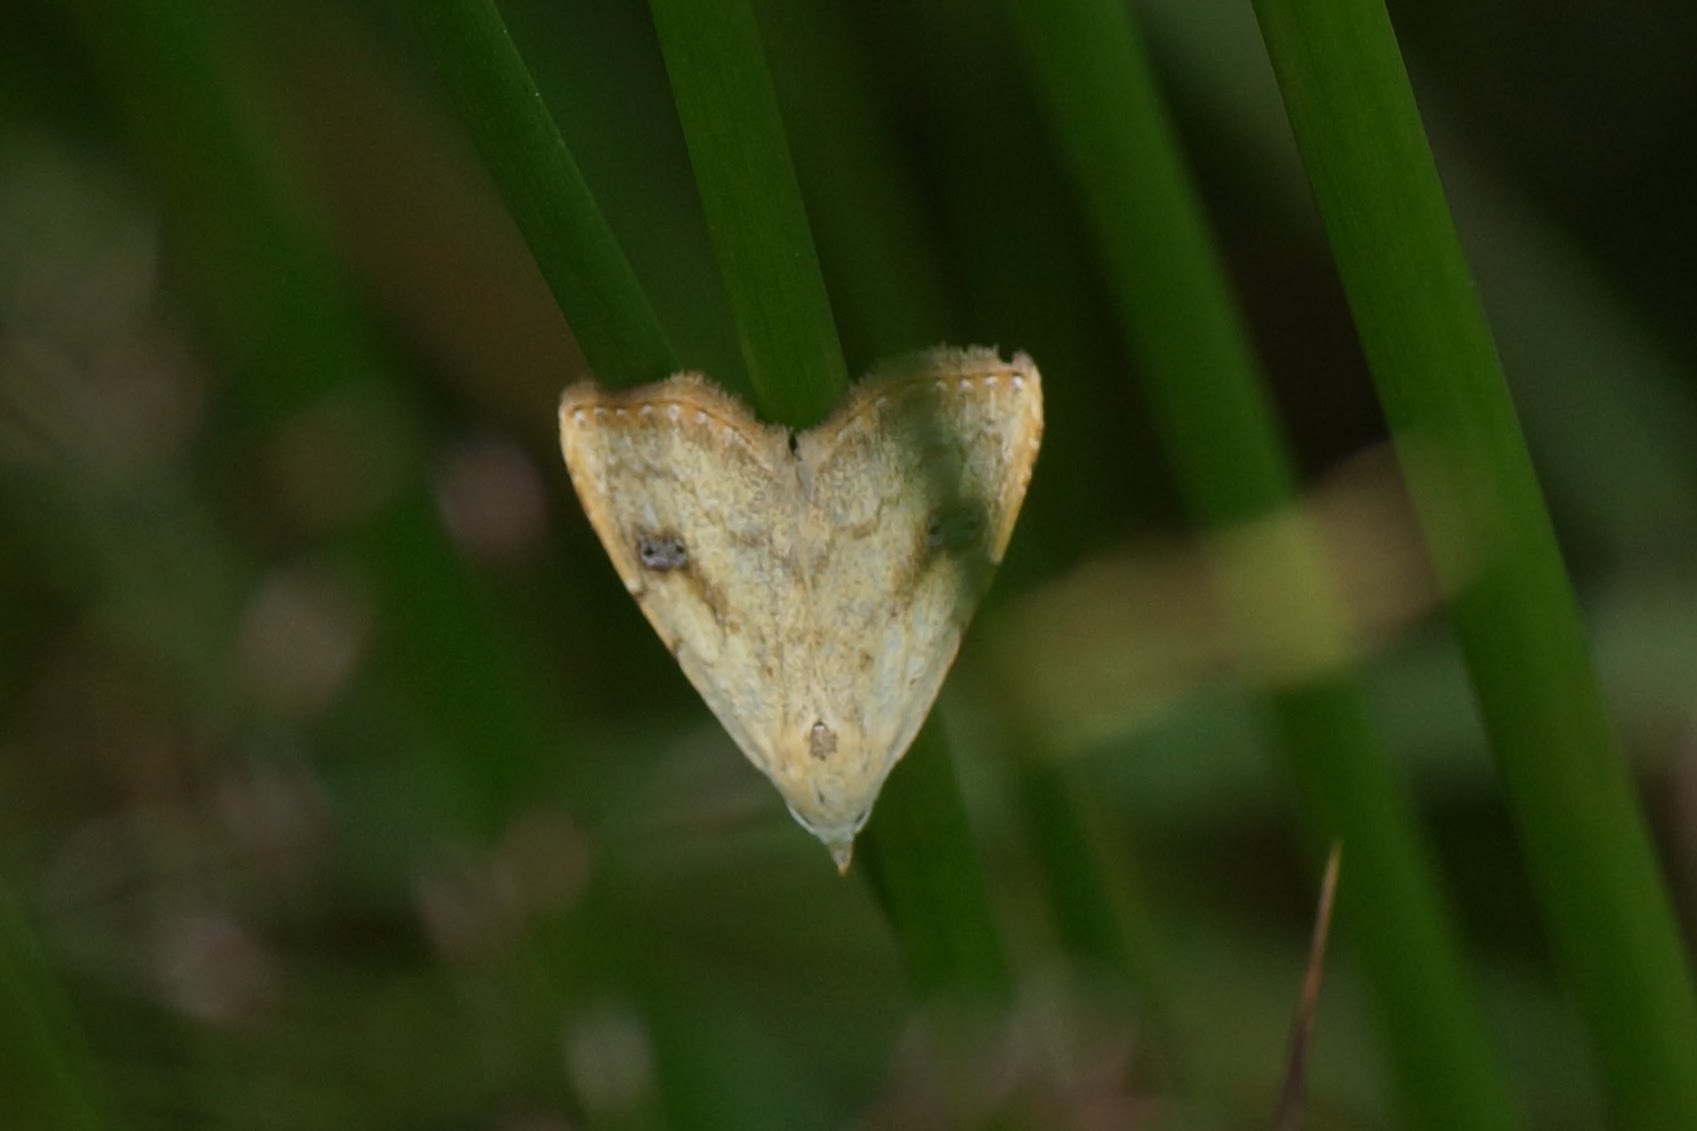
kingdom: Animalia
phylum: Arthropoda
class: Insecta
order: Lepidoptera
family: Erebidae
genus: Rivula
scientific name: Rivula sericealis
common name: Straw dot
